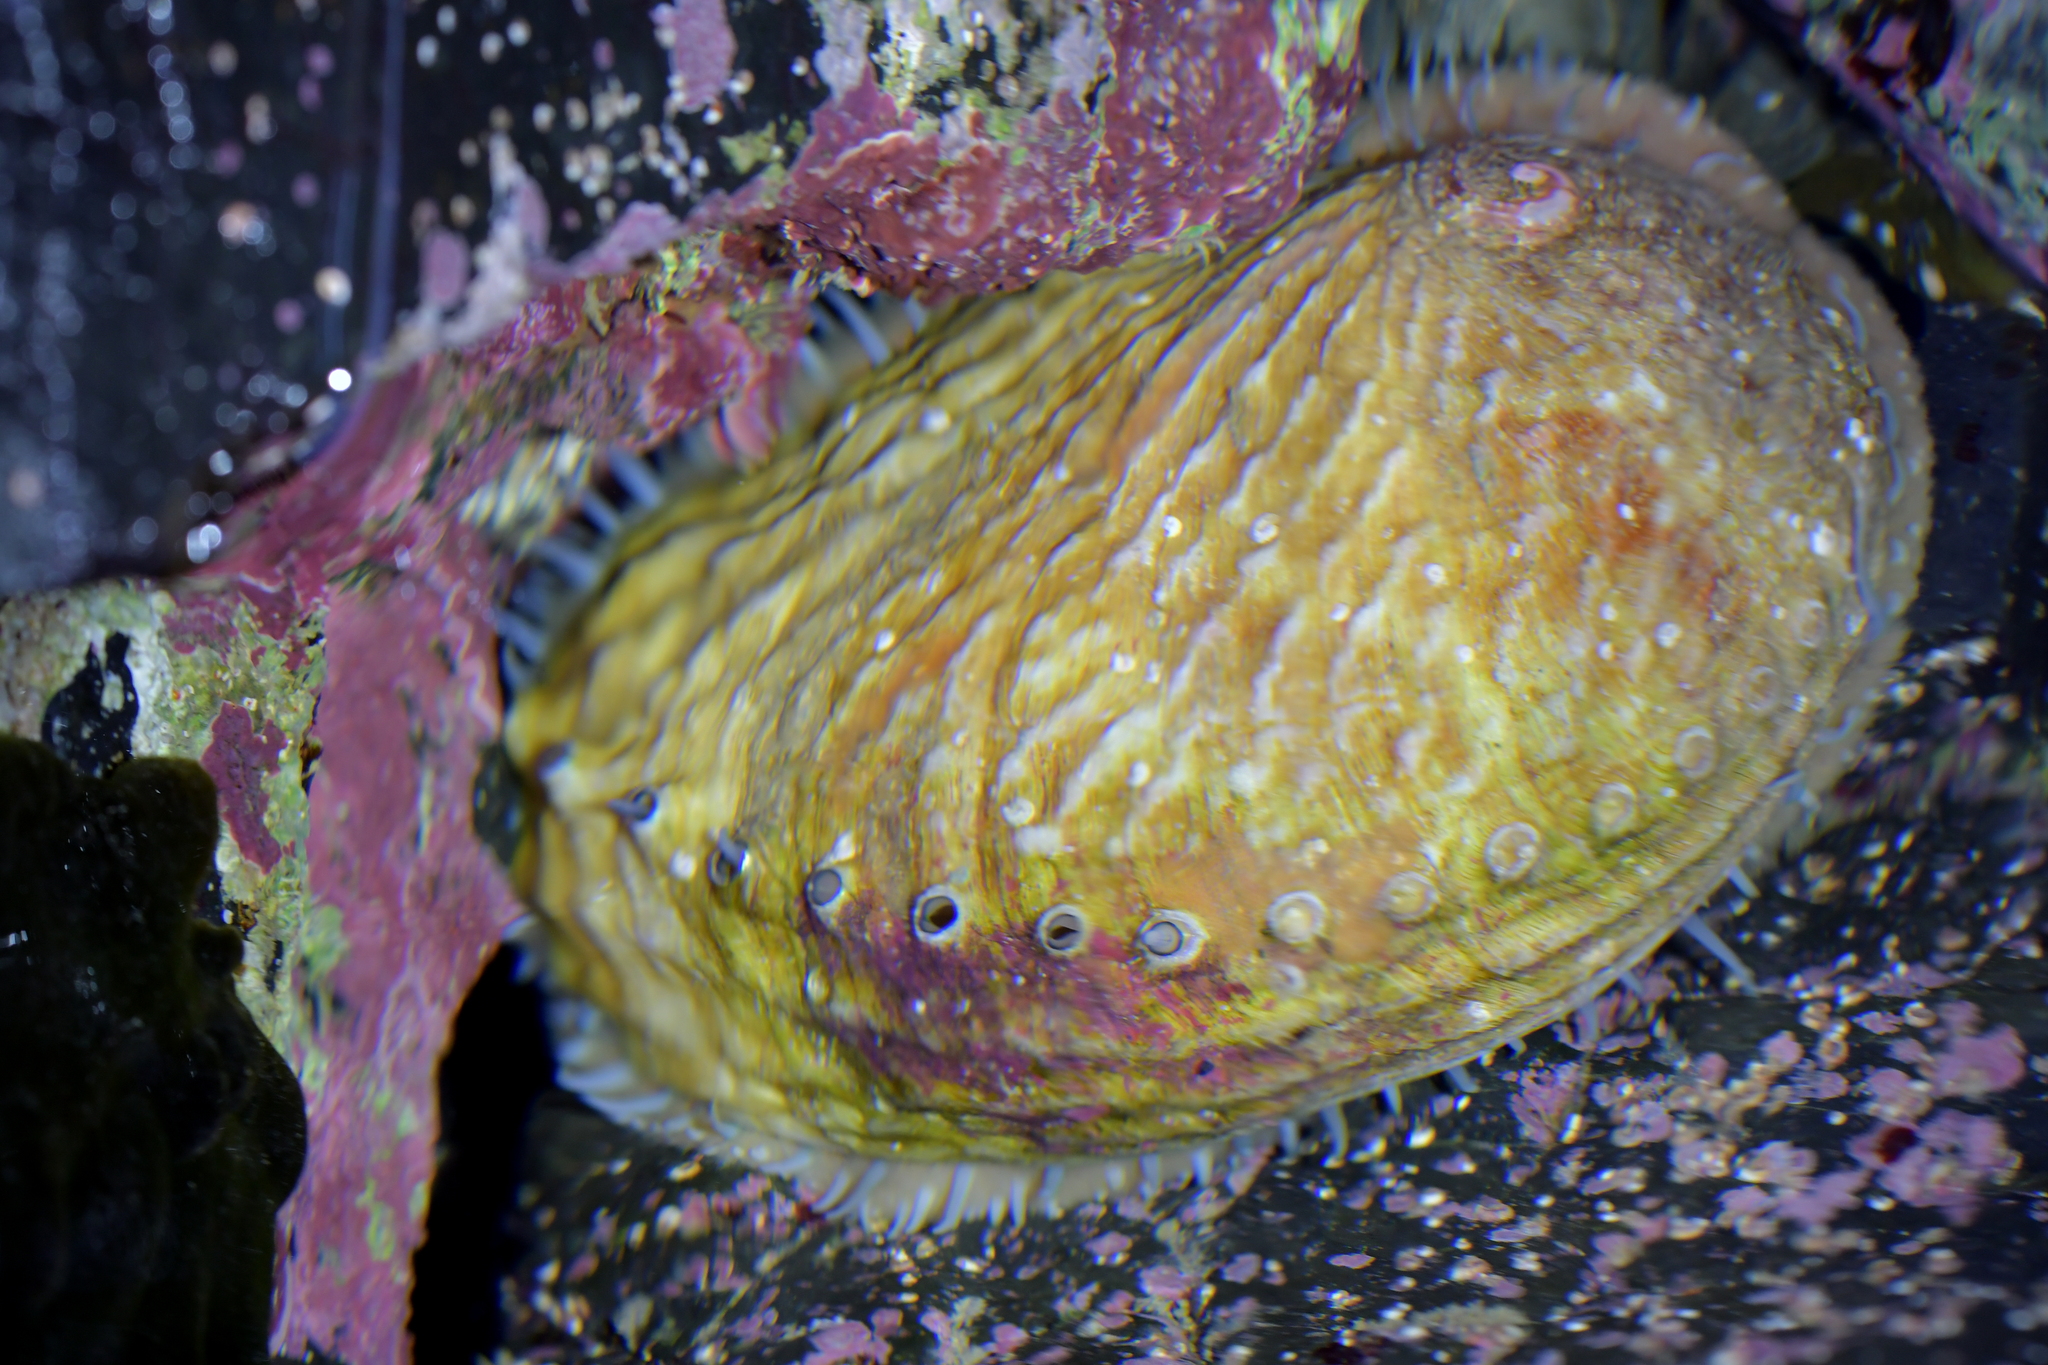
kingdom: Animalia
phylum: Mollusca
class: Gastropoda
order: Lepetellida
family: Haliotidae
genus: Haliotis
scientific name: Haliotis australis
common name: Silver abalone
